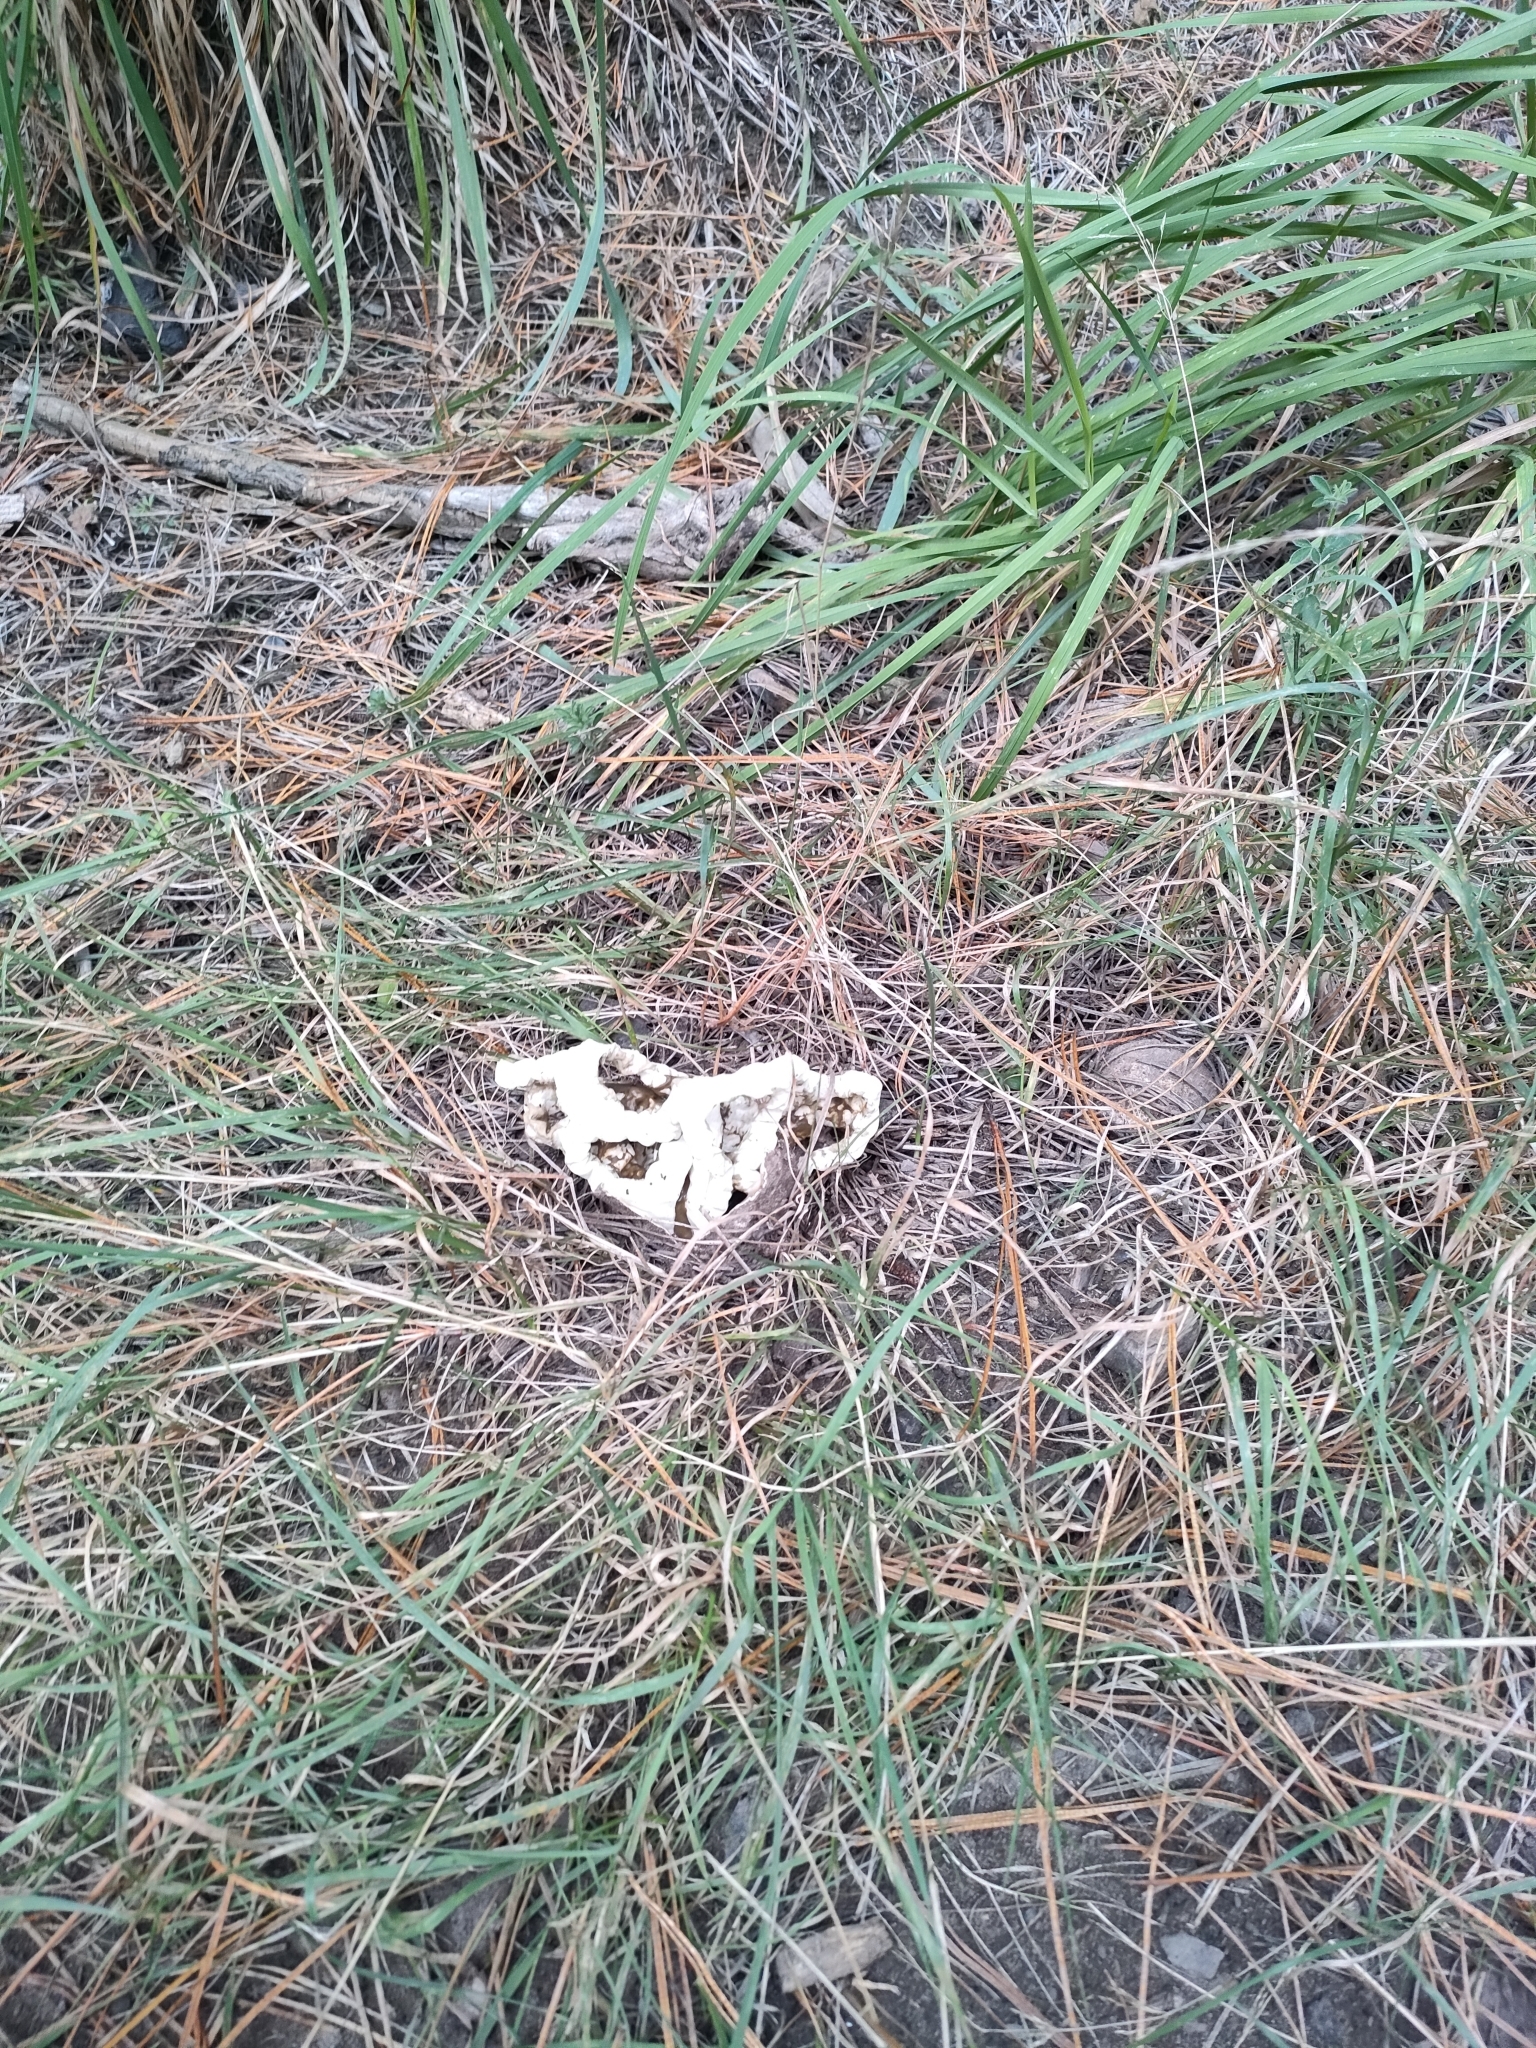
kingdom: Fungi
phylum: Basidiomycota
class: Agaricomycetes
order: Phallales
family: Phallaceae
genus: Ileodictyon
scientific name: Ileodictyon cibarium
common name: Basket fungus
